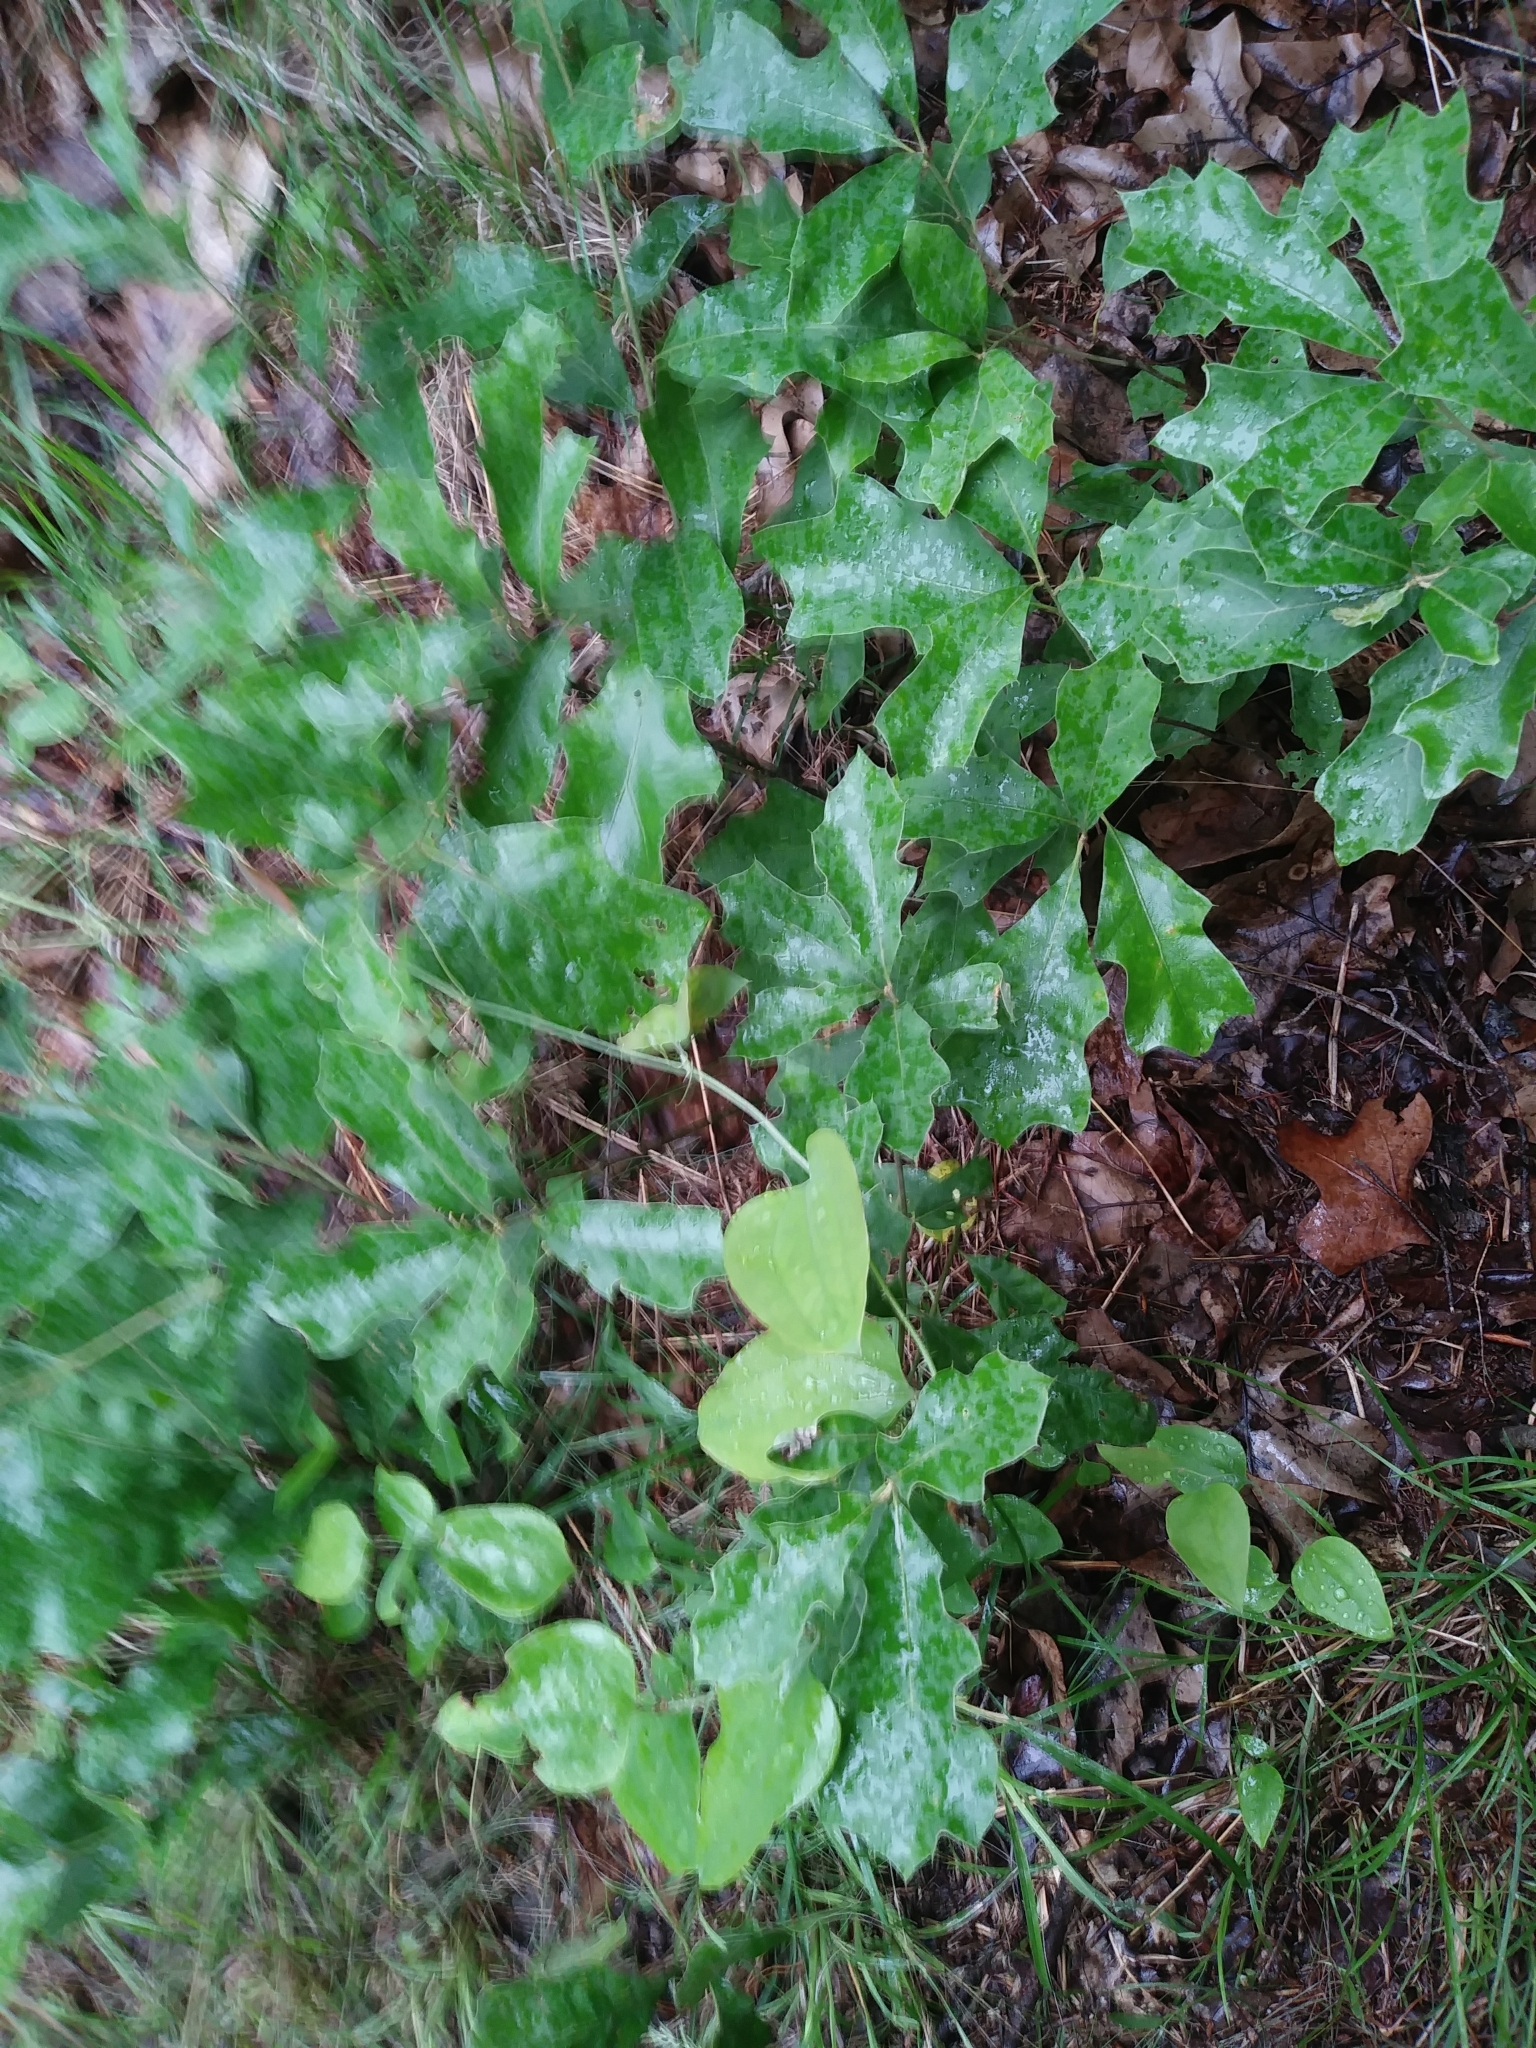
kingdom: Plantae
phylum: Tracheophyta
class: Magnoliopsida
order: Fagales
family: Fagaceae
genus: Quercus
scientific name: Quercus ilicifolia
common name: Bear oak
